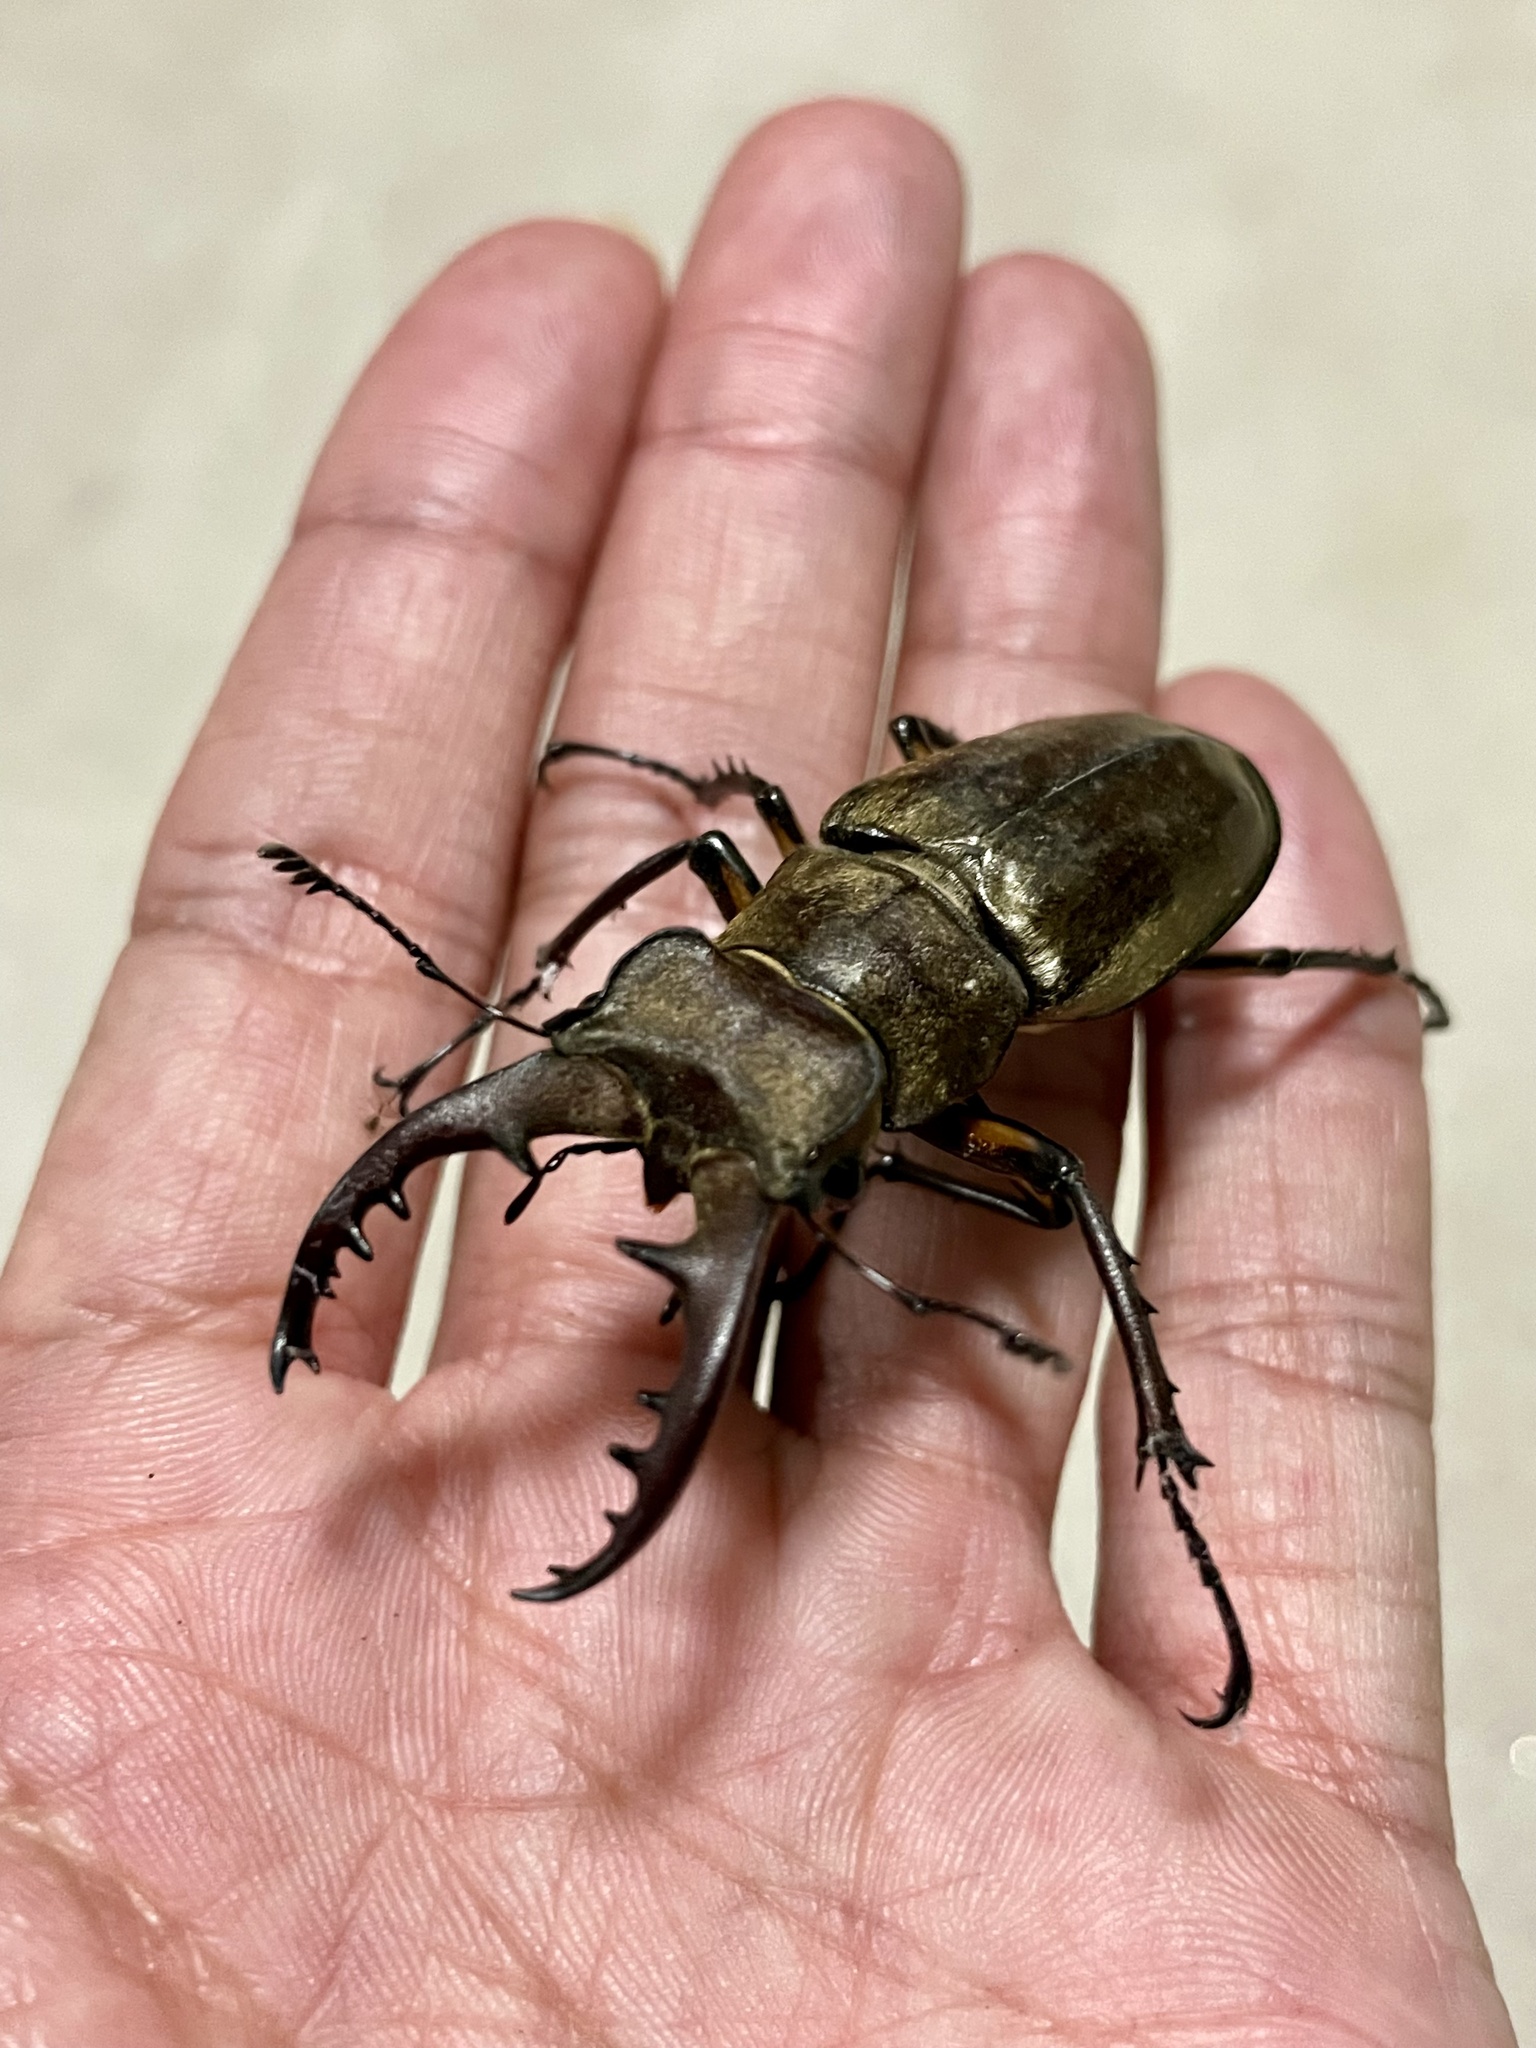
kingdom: Animalia
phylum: Arthropoda
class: Insecta
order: Coleoptera
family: Lucanidae
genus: Lucanus
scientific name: Lucanus maculifemoratus
